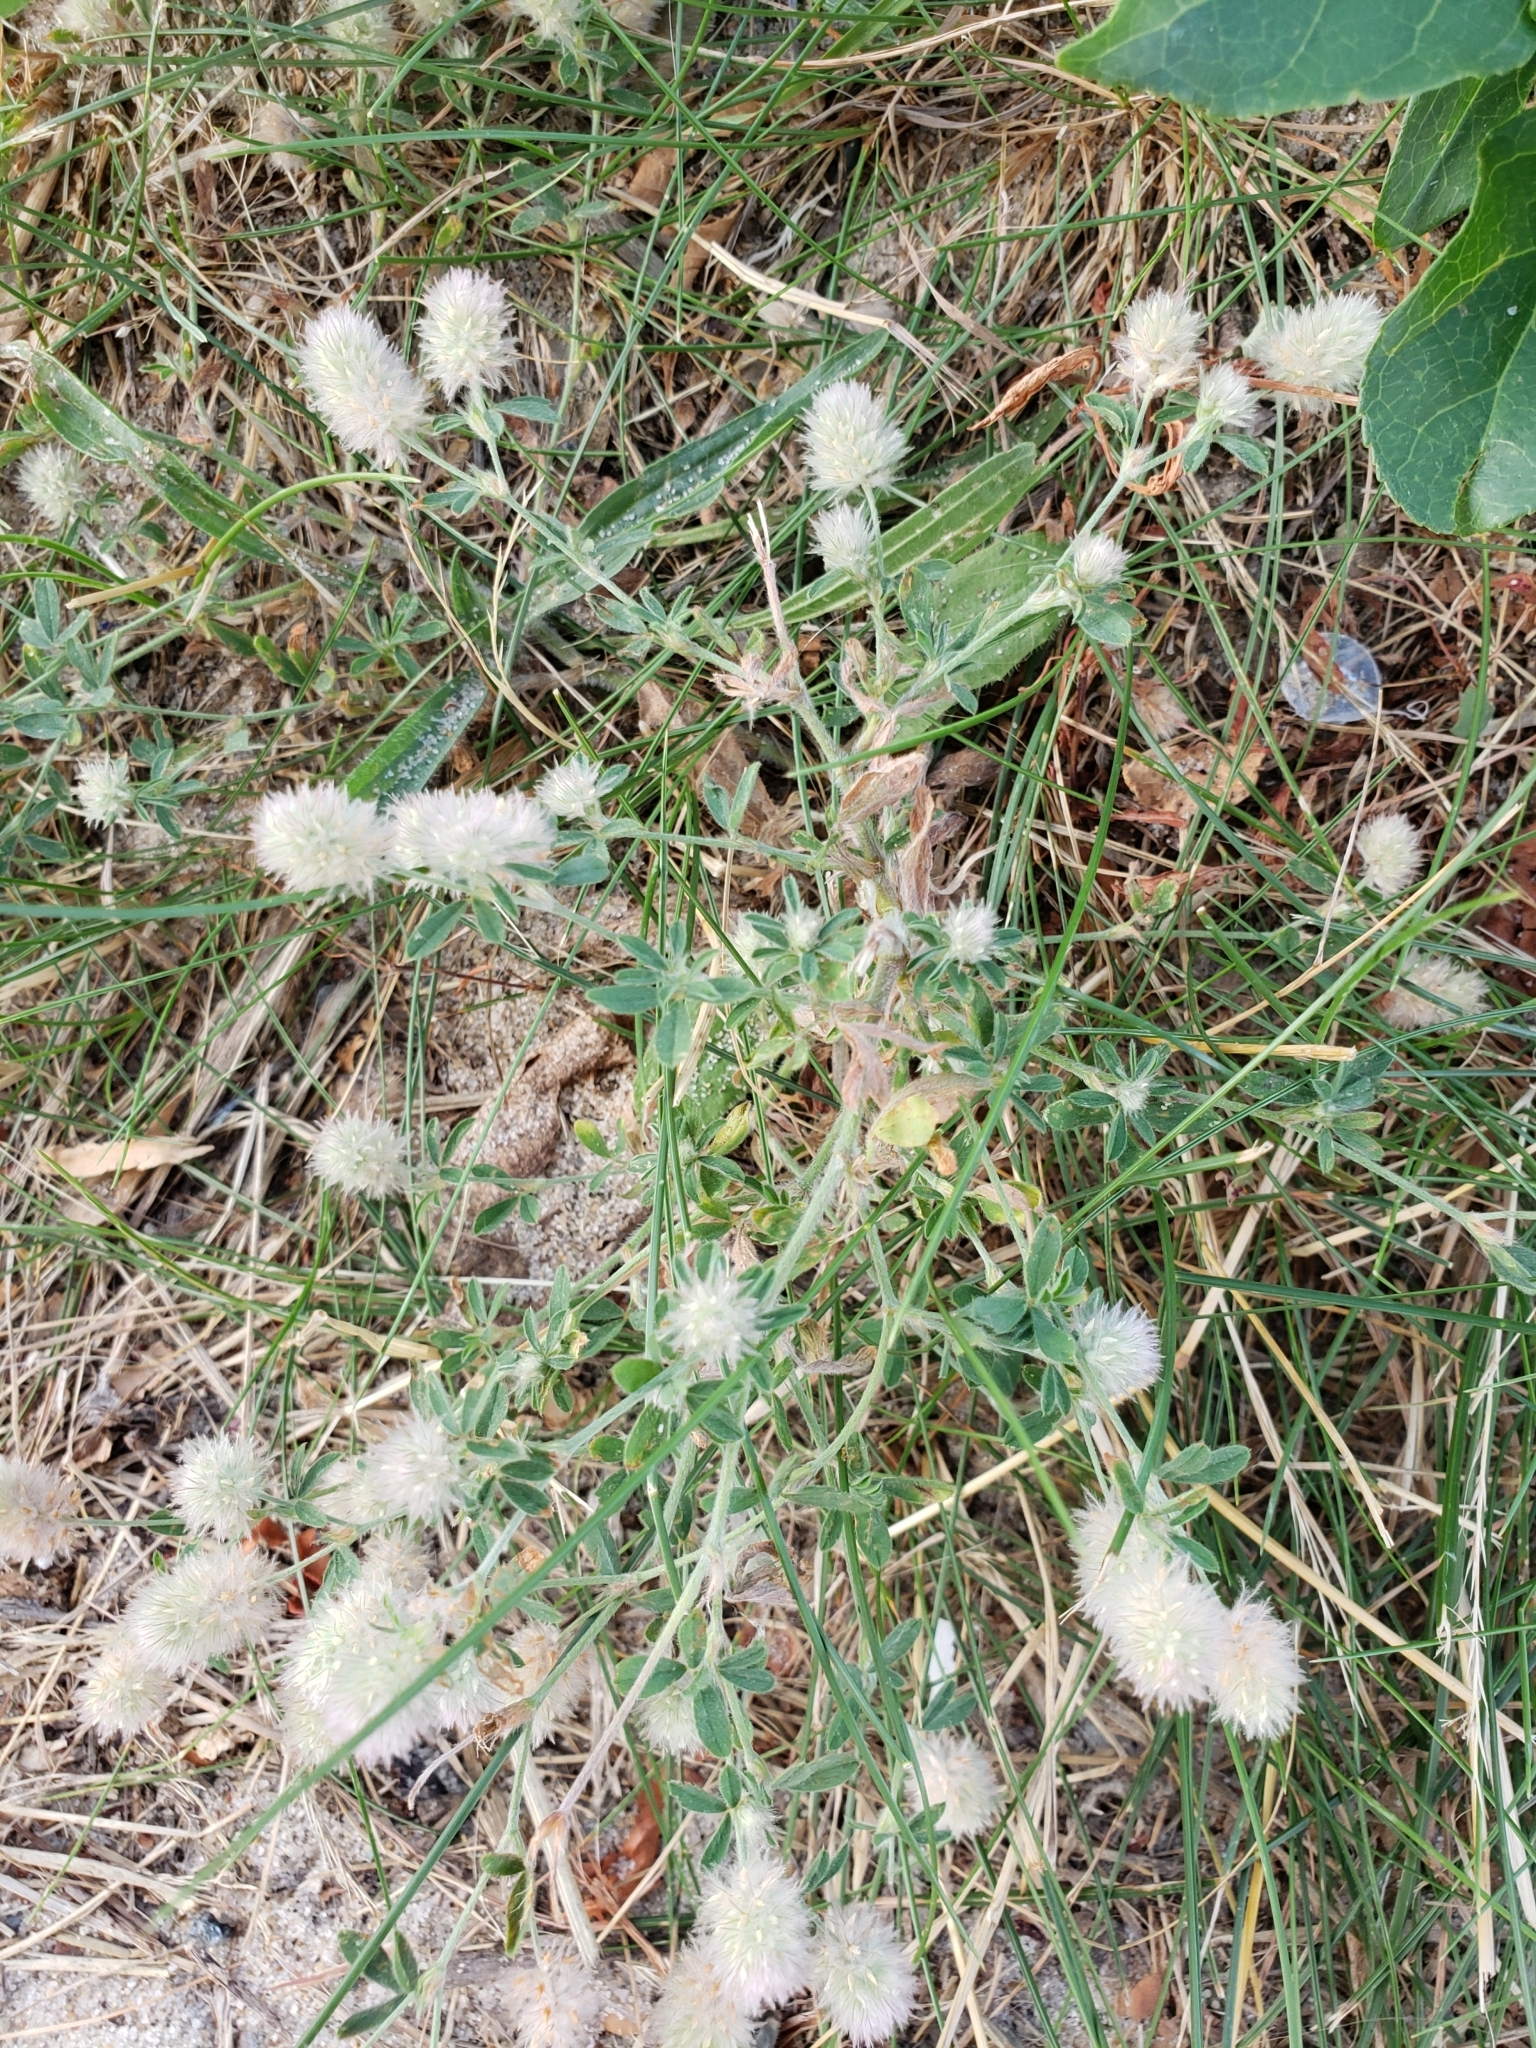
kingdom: Plantae
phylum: Tracheophyta
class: Magnoliopsida
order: Fabales
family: Fabaceae
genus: Trifolium
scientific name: Trifolium arvense
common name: Hare's-foot clover
